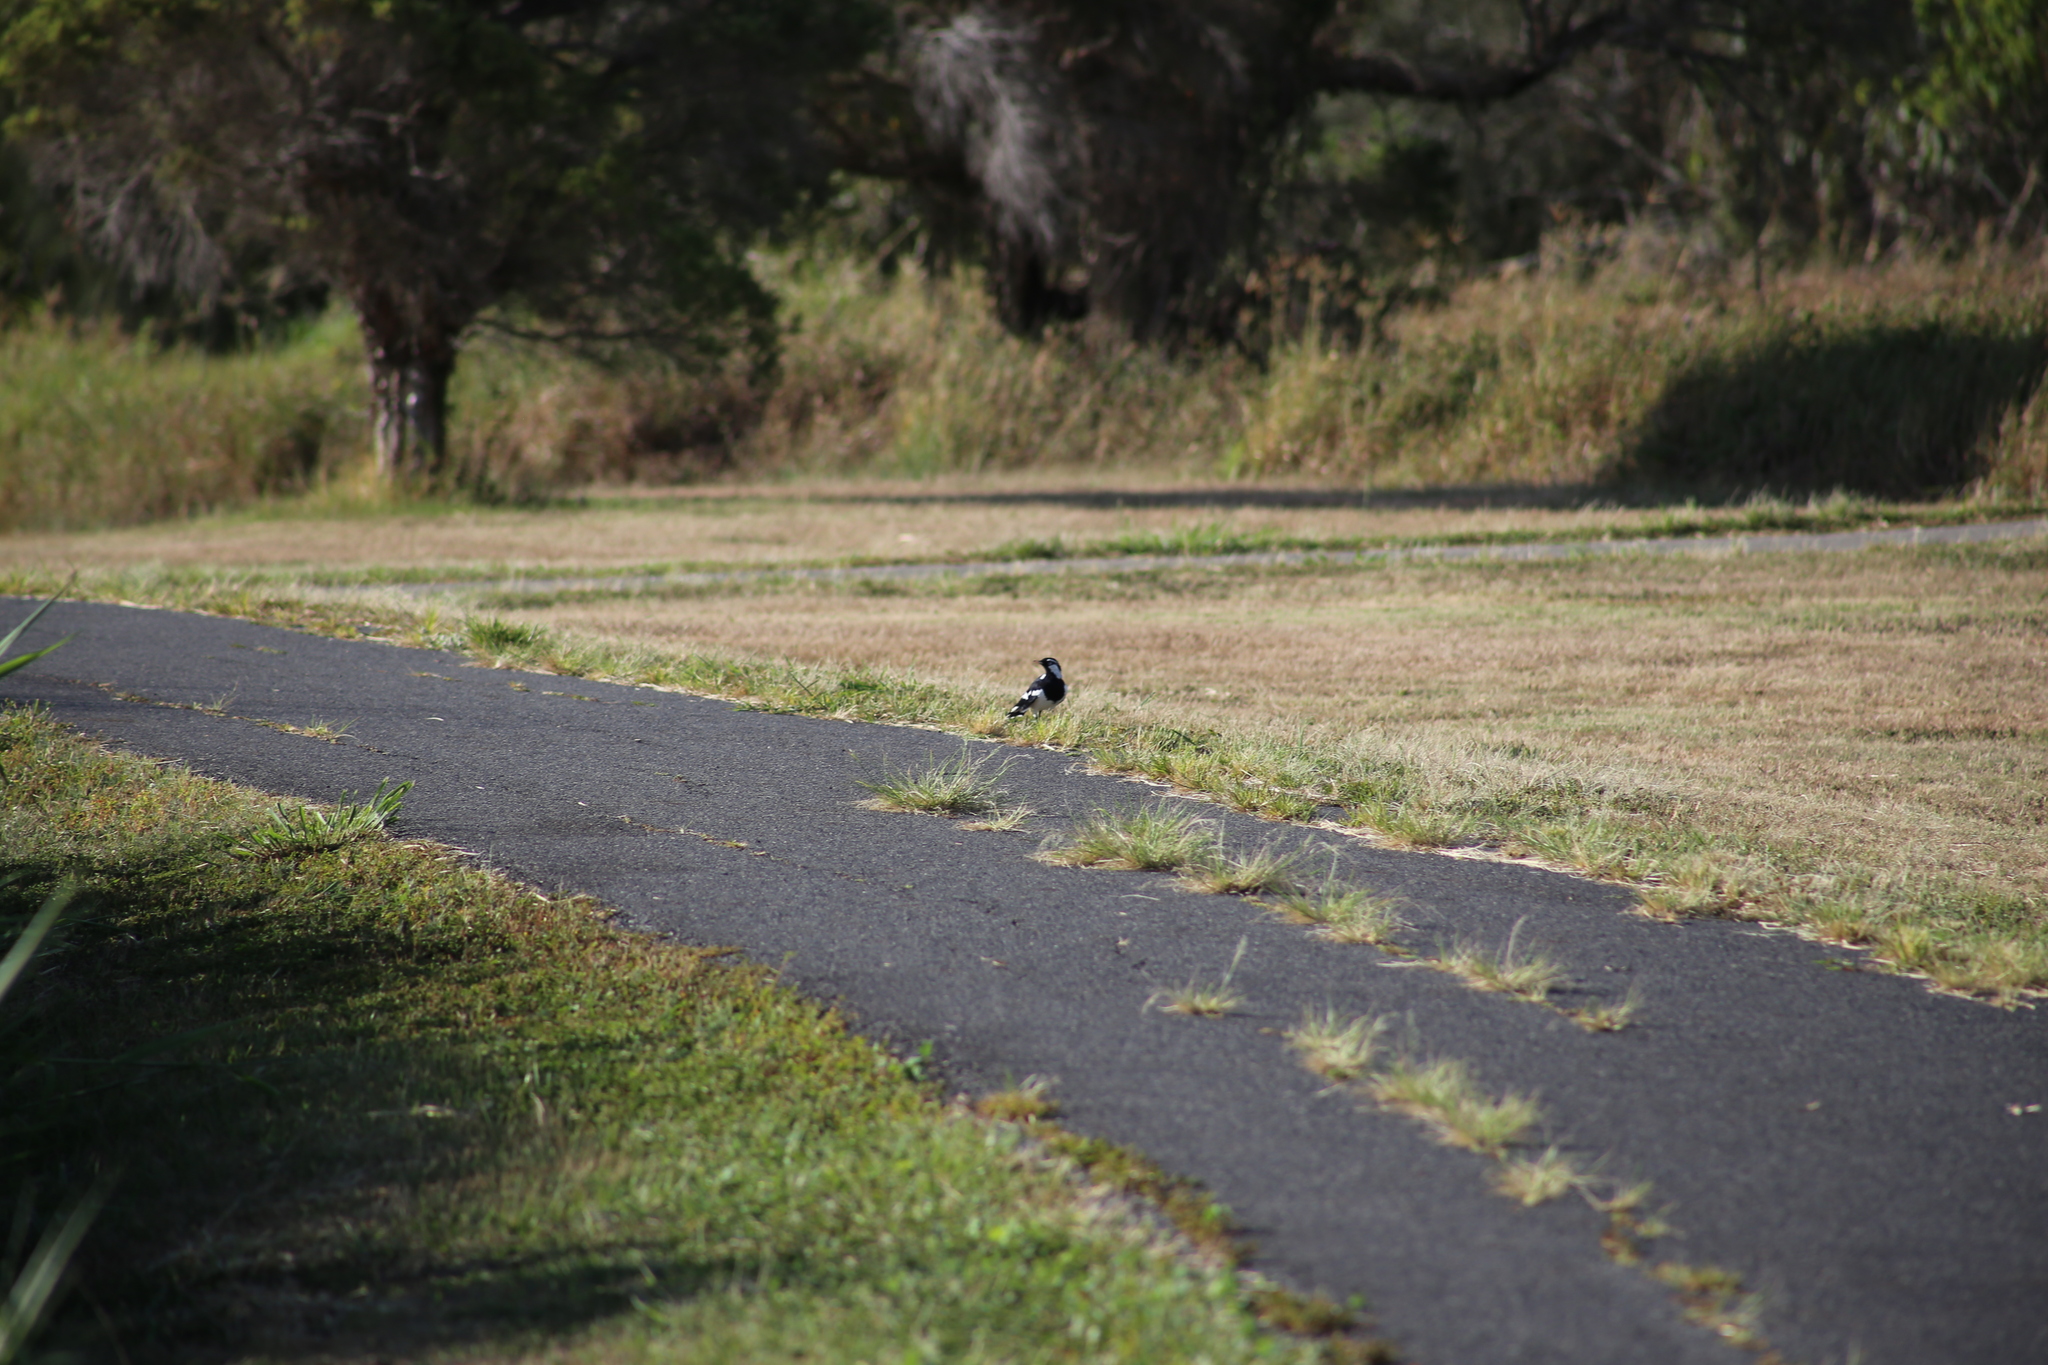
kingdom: Animalia
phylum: Chordata
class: Aves
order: Passeriformes
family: Monarchidae
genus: Grallina
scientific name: Grallina cyanoleuca
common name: Magpie-lark
